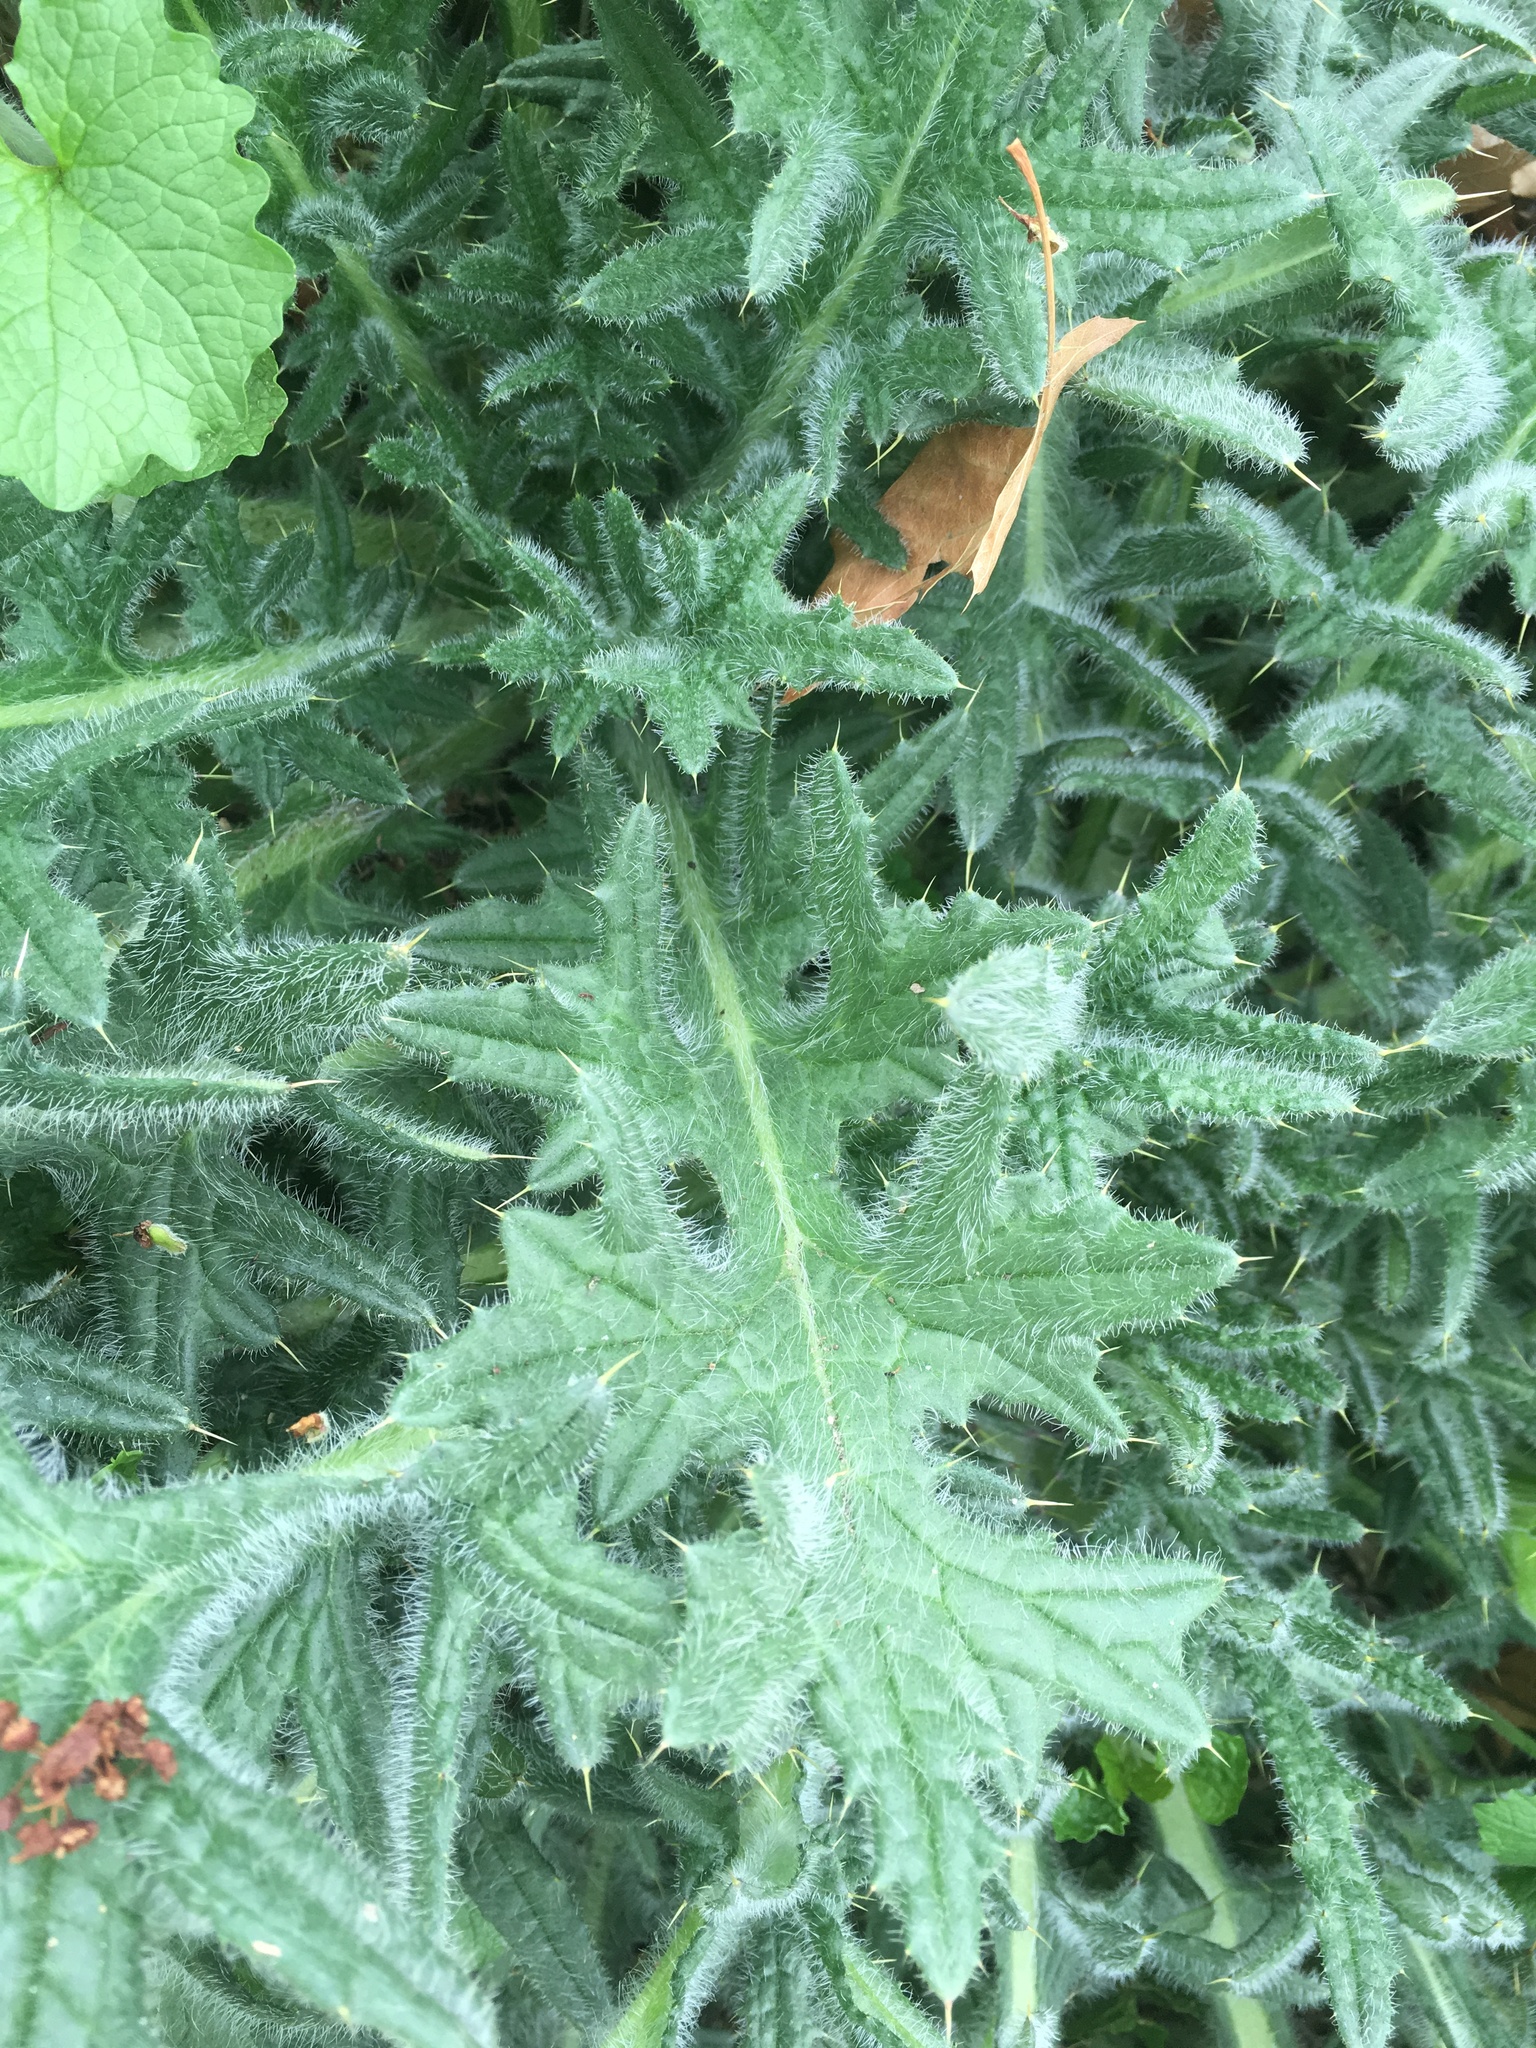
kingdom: Plantae
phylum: Tracheophyta
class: Magnoliopsida
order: Asterales
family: Asteraceae
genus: Cirsium
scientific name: Cirsium vulgare
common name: Bull thistle
